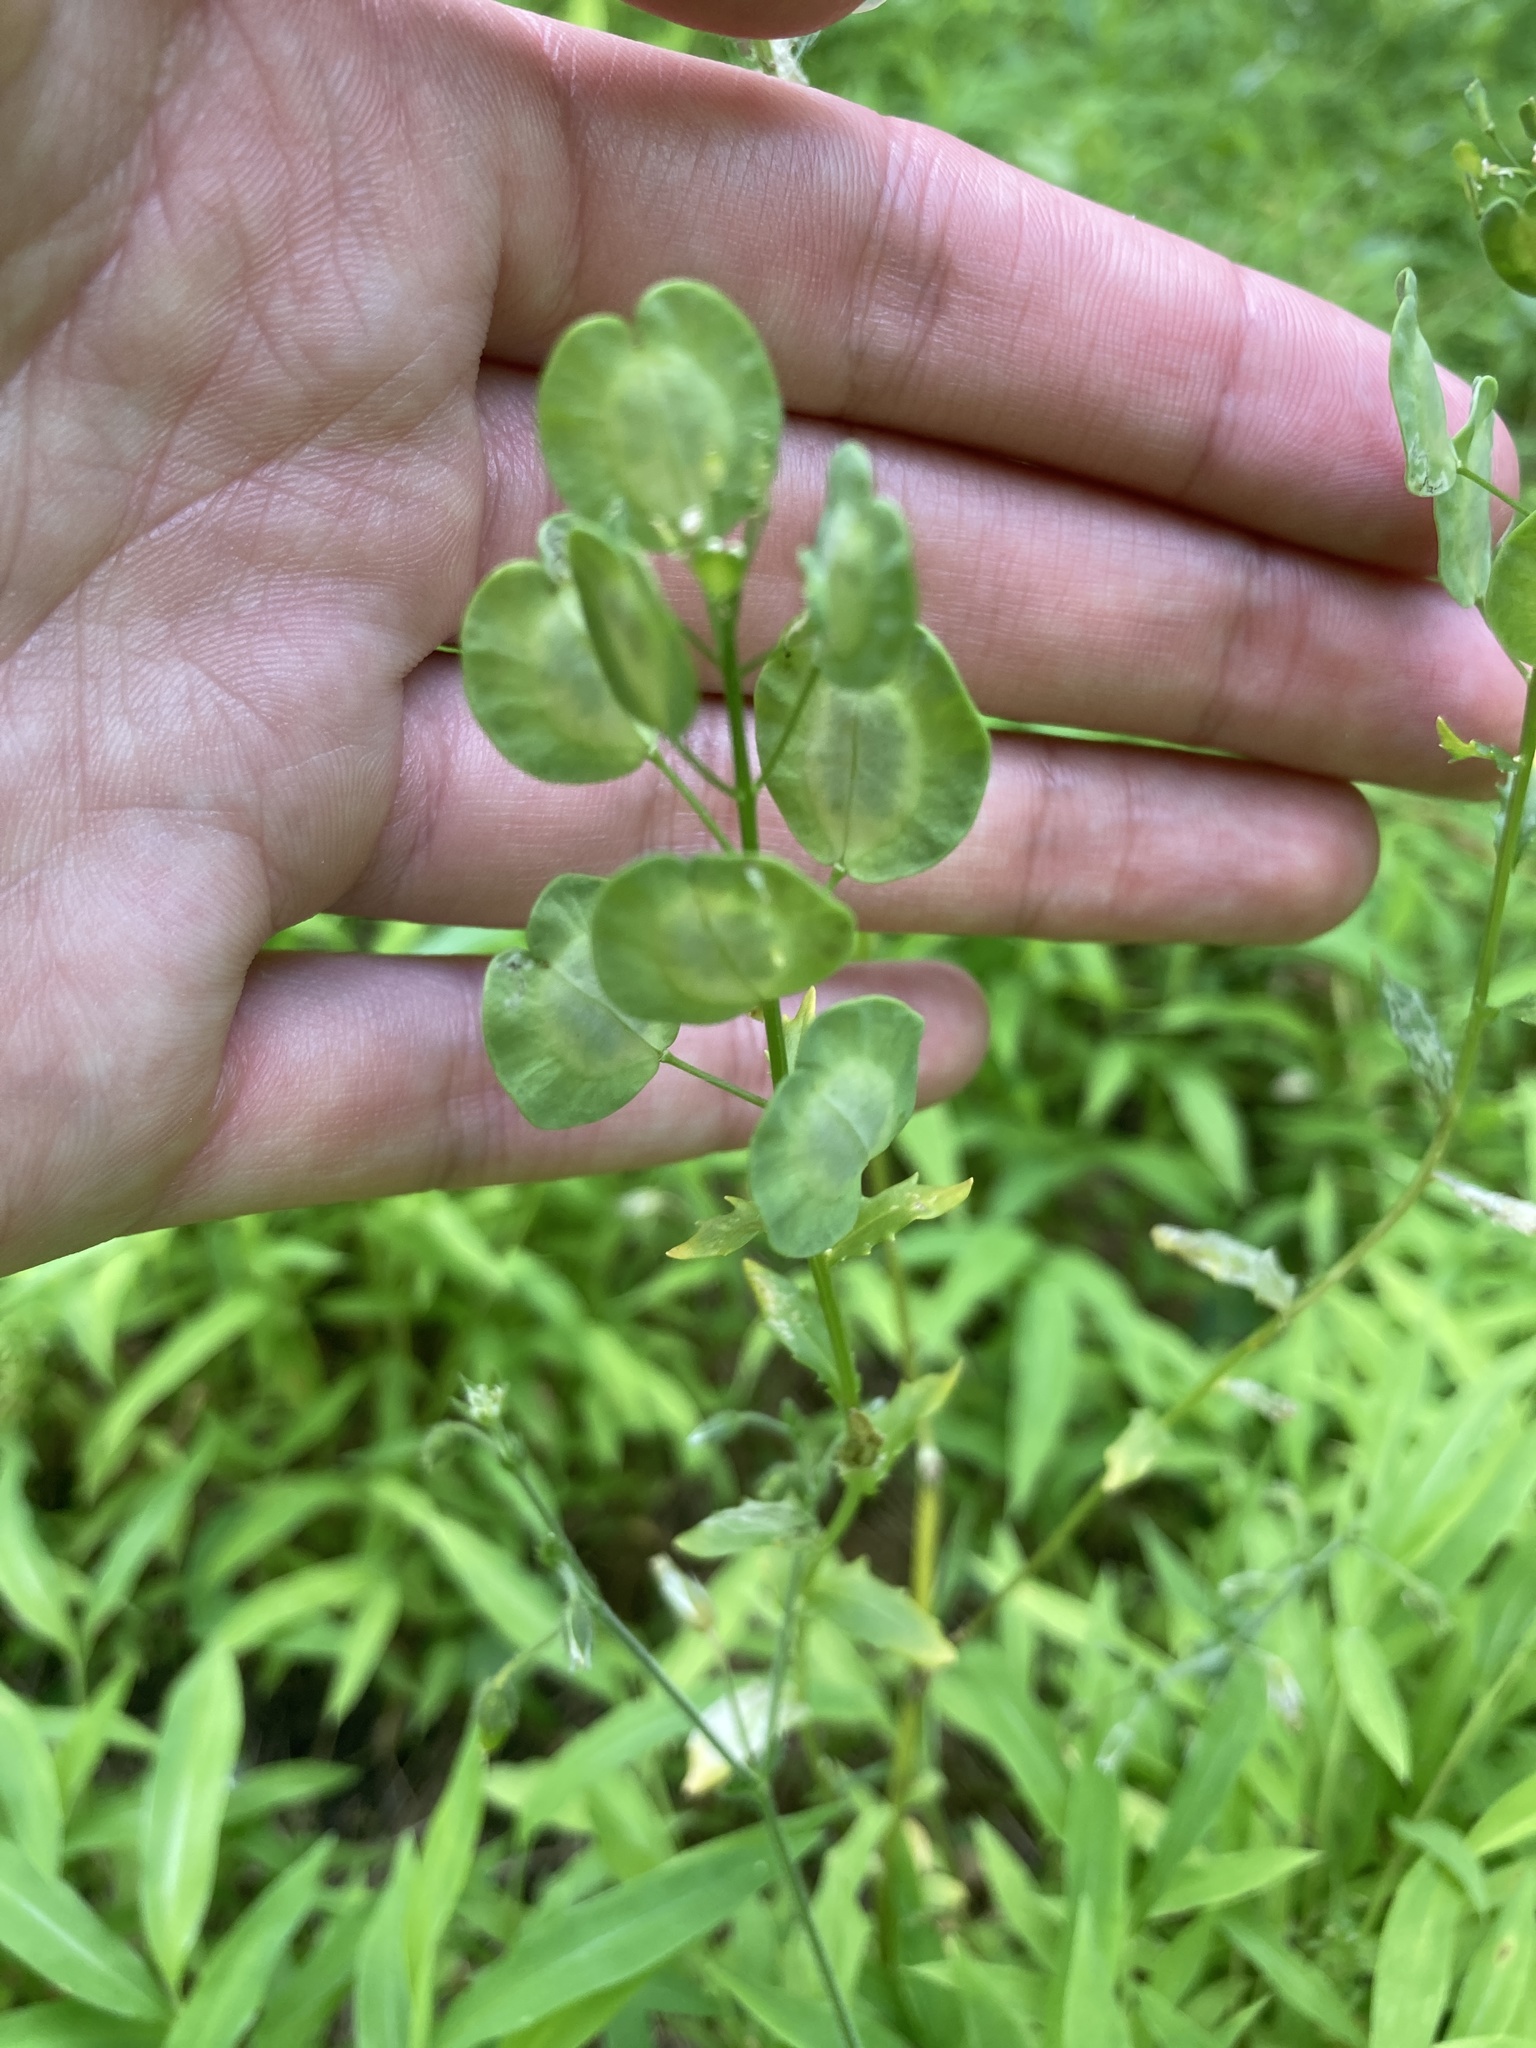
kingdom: Plantae
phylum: Tracheophyta
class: Magnoliopsida
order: Brassicales
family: Brassicaceae
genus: Thlaspi
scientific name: Thlaspi arvense
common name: Field pennycress
